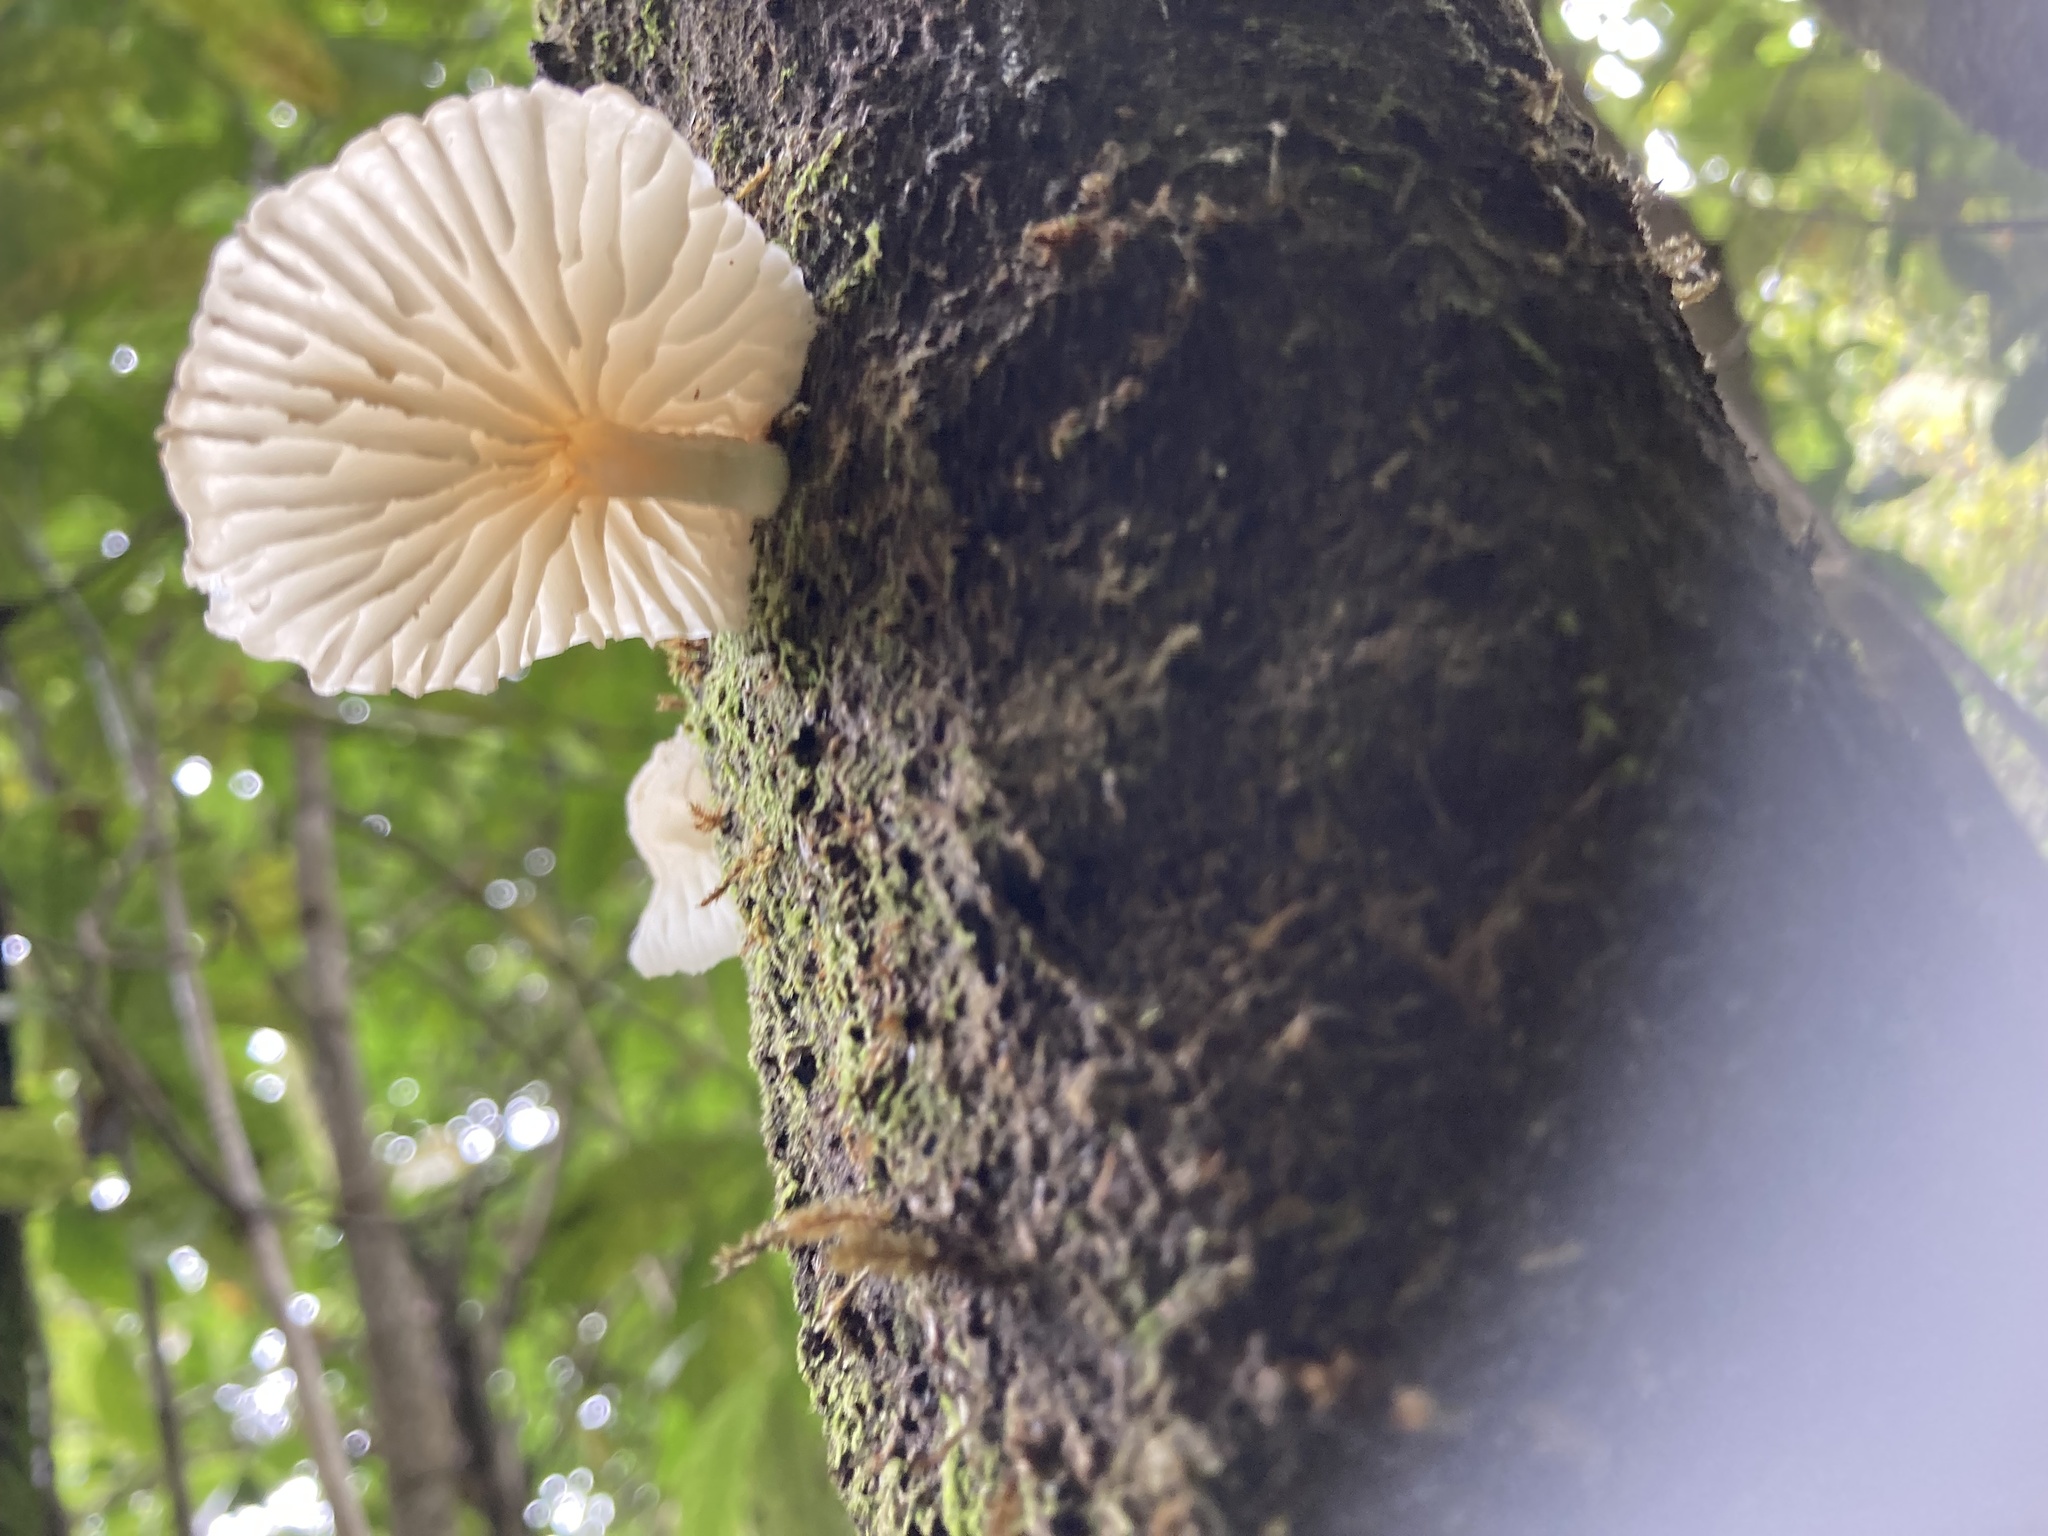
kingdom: Fungi
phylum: Basidiomycota
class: Agaricomycetes
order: Agaricales
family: Physalacriaceae
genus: Oudemansiella
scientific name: Oudemansiella australis
